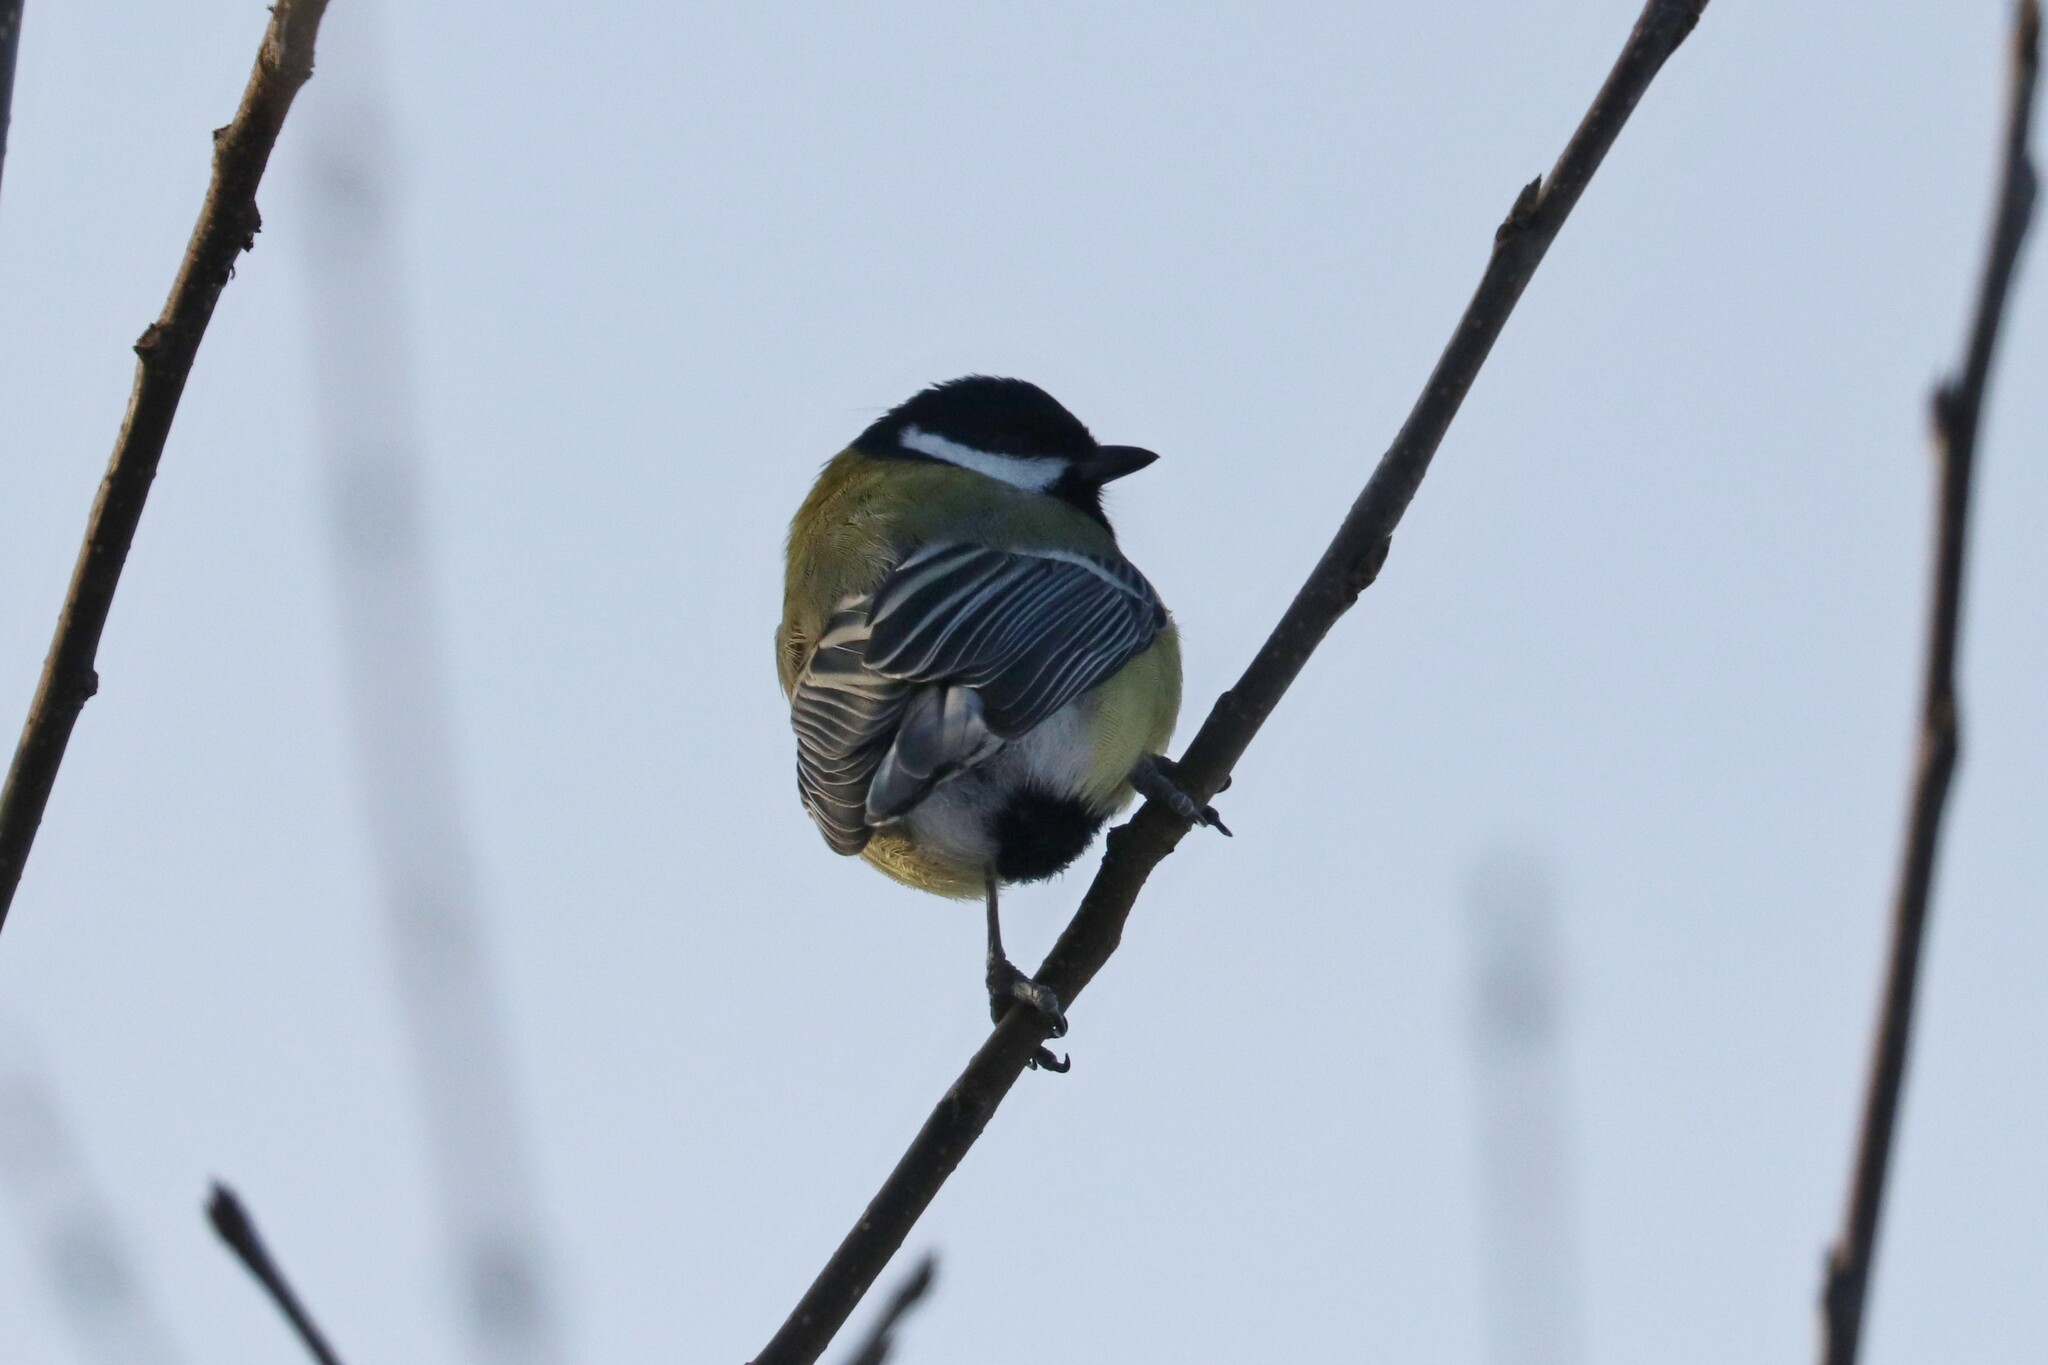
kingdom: Animalia
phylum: Chordata
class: Aves
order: Passeriformes
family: Paridae
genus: Parus
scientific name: Parus major
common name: Great tit
